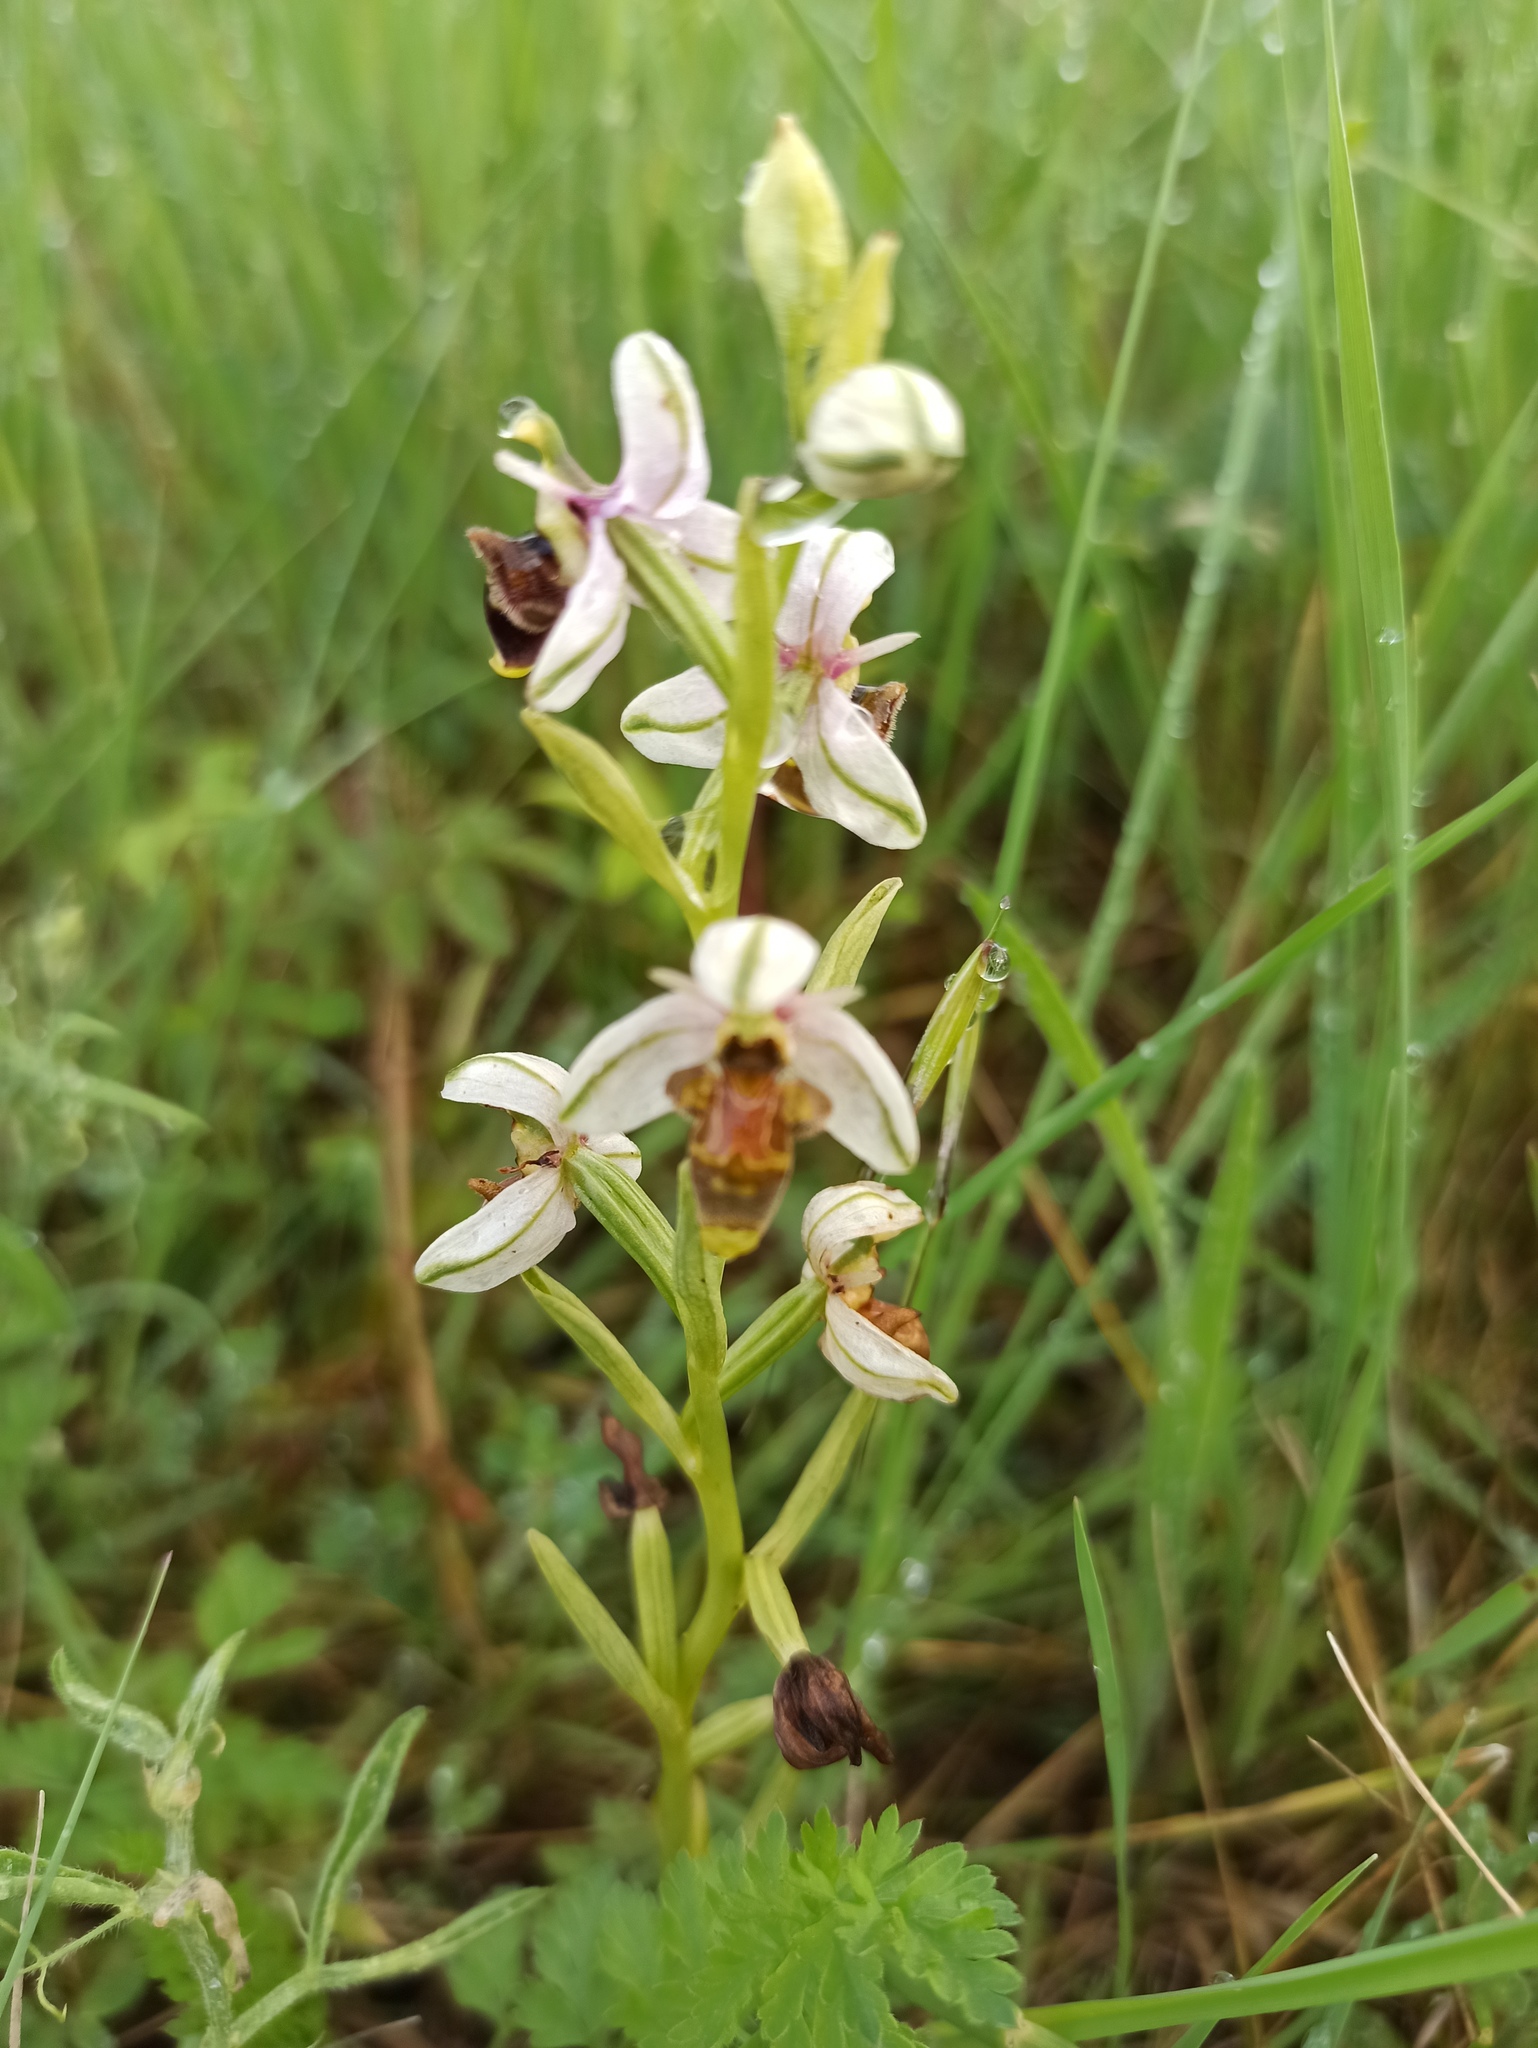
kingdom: Plantae
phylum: Tracheophyta
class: Liliopsida
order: Asparagales
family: Orchidaceae
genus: Ophrys
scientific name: Ophrys scolopax
